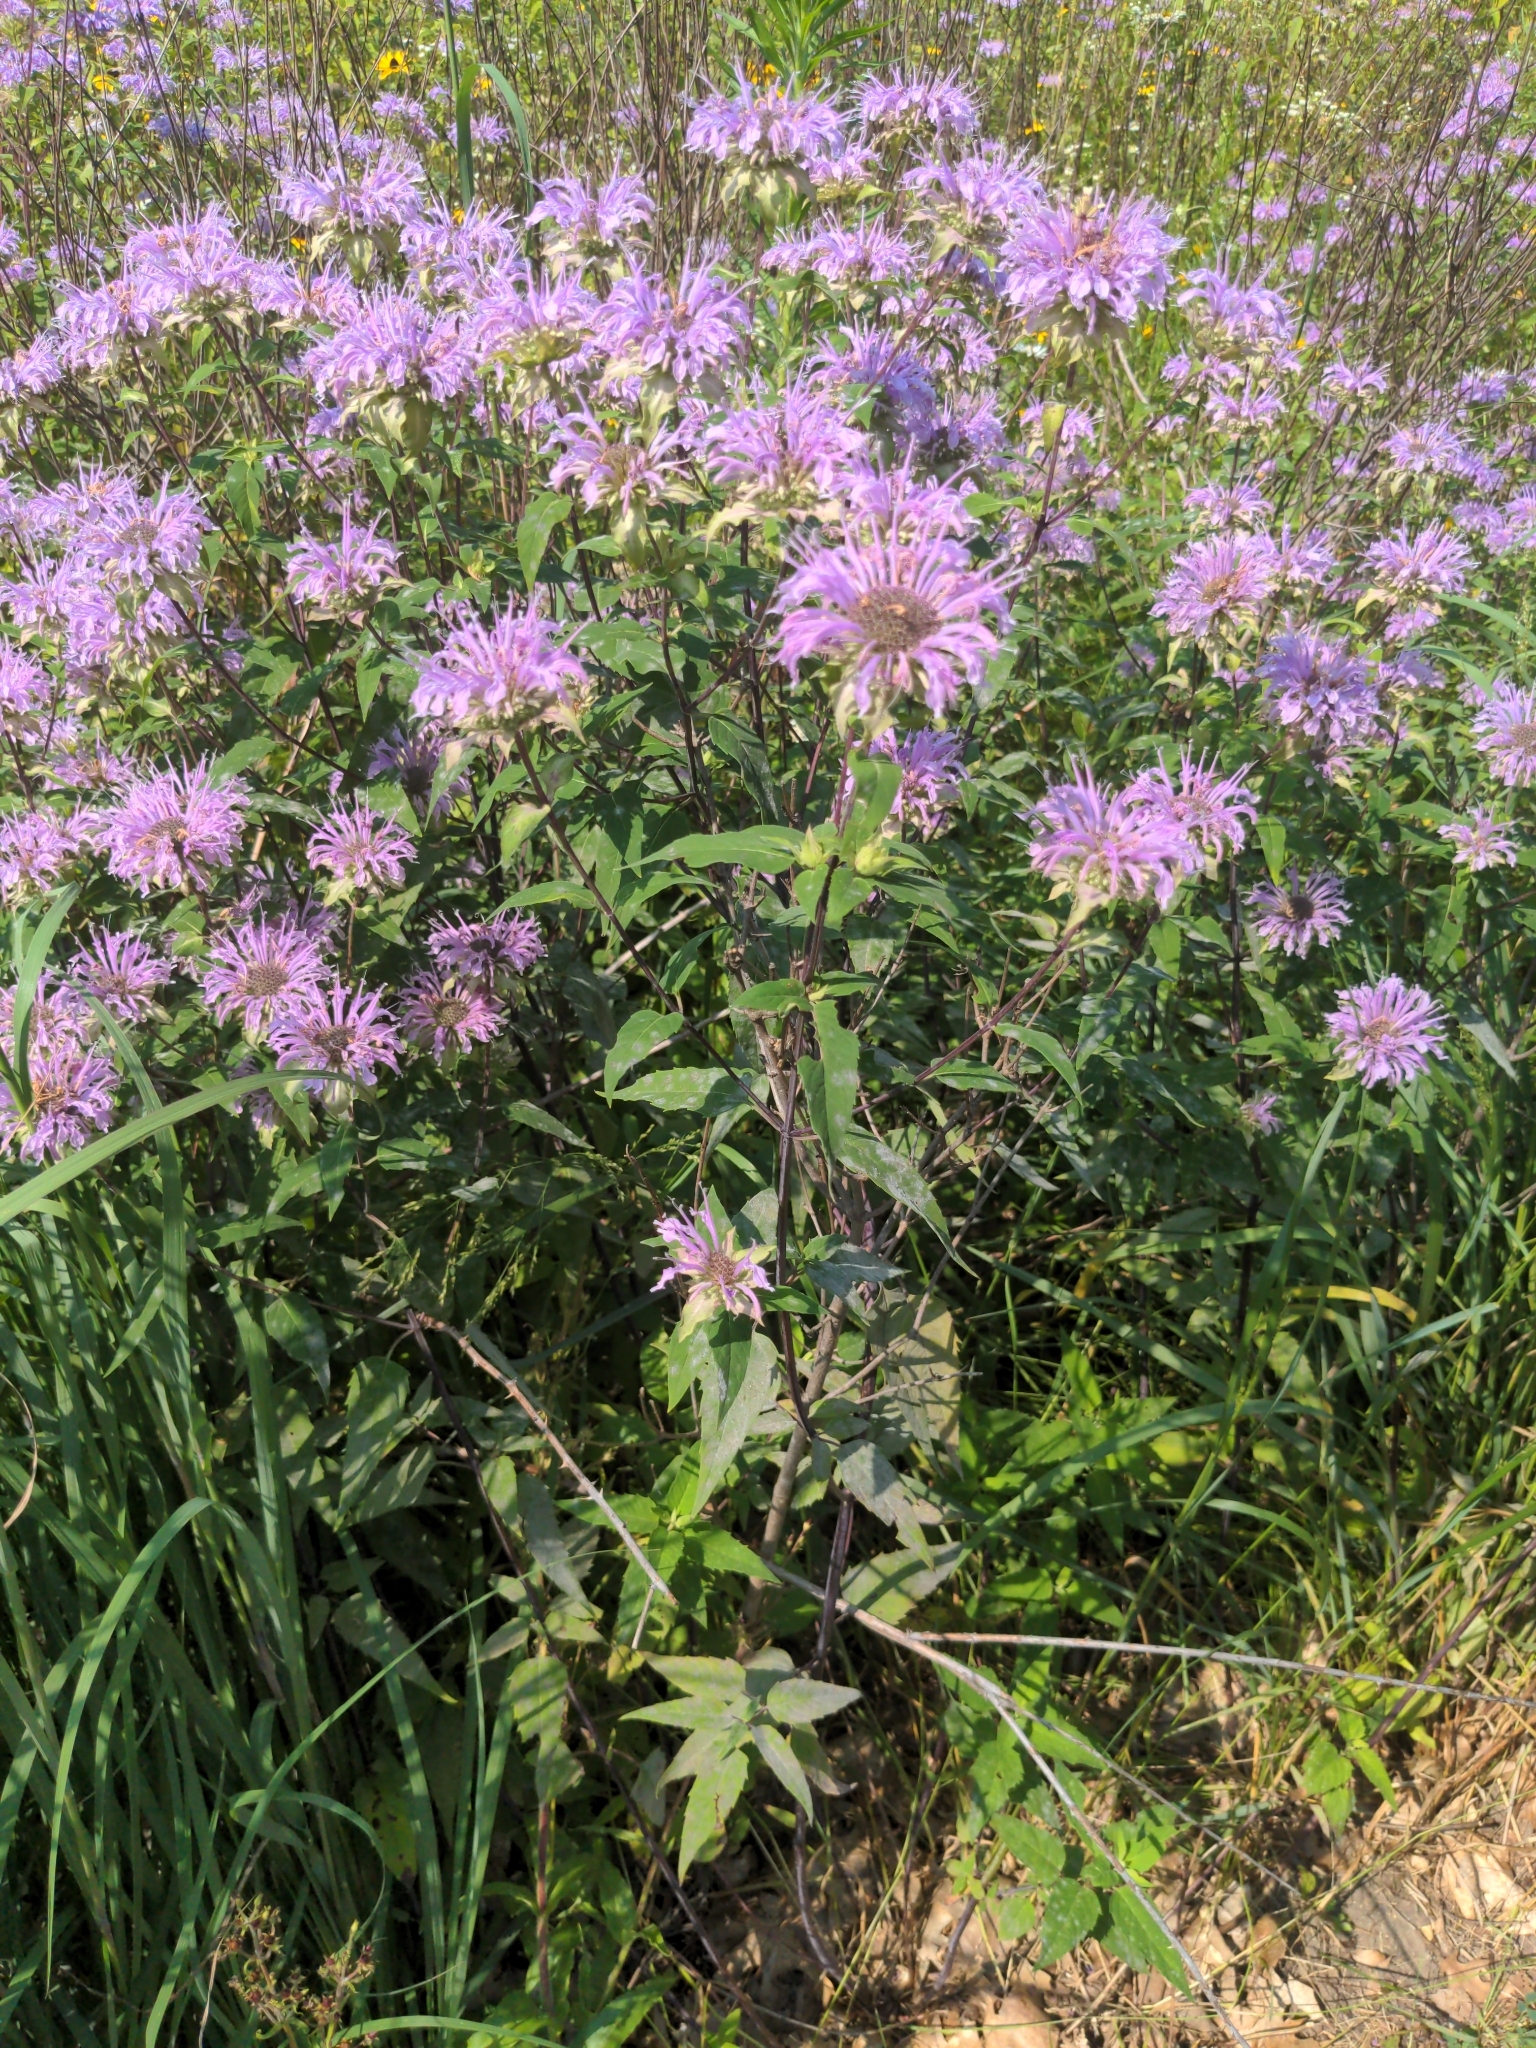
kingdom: Plantae
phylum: Tracheophyta
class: Magnoliopsida
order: Lamiales
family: Lamiaceae
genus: Monarda
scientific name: Monarda fistulosa
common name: Purple beebalm
